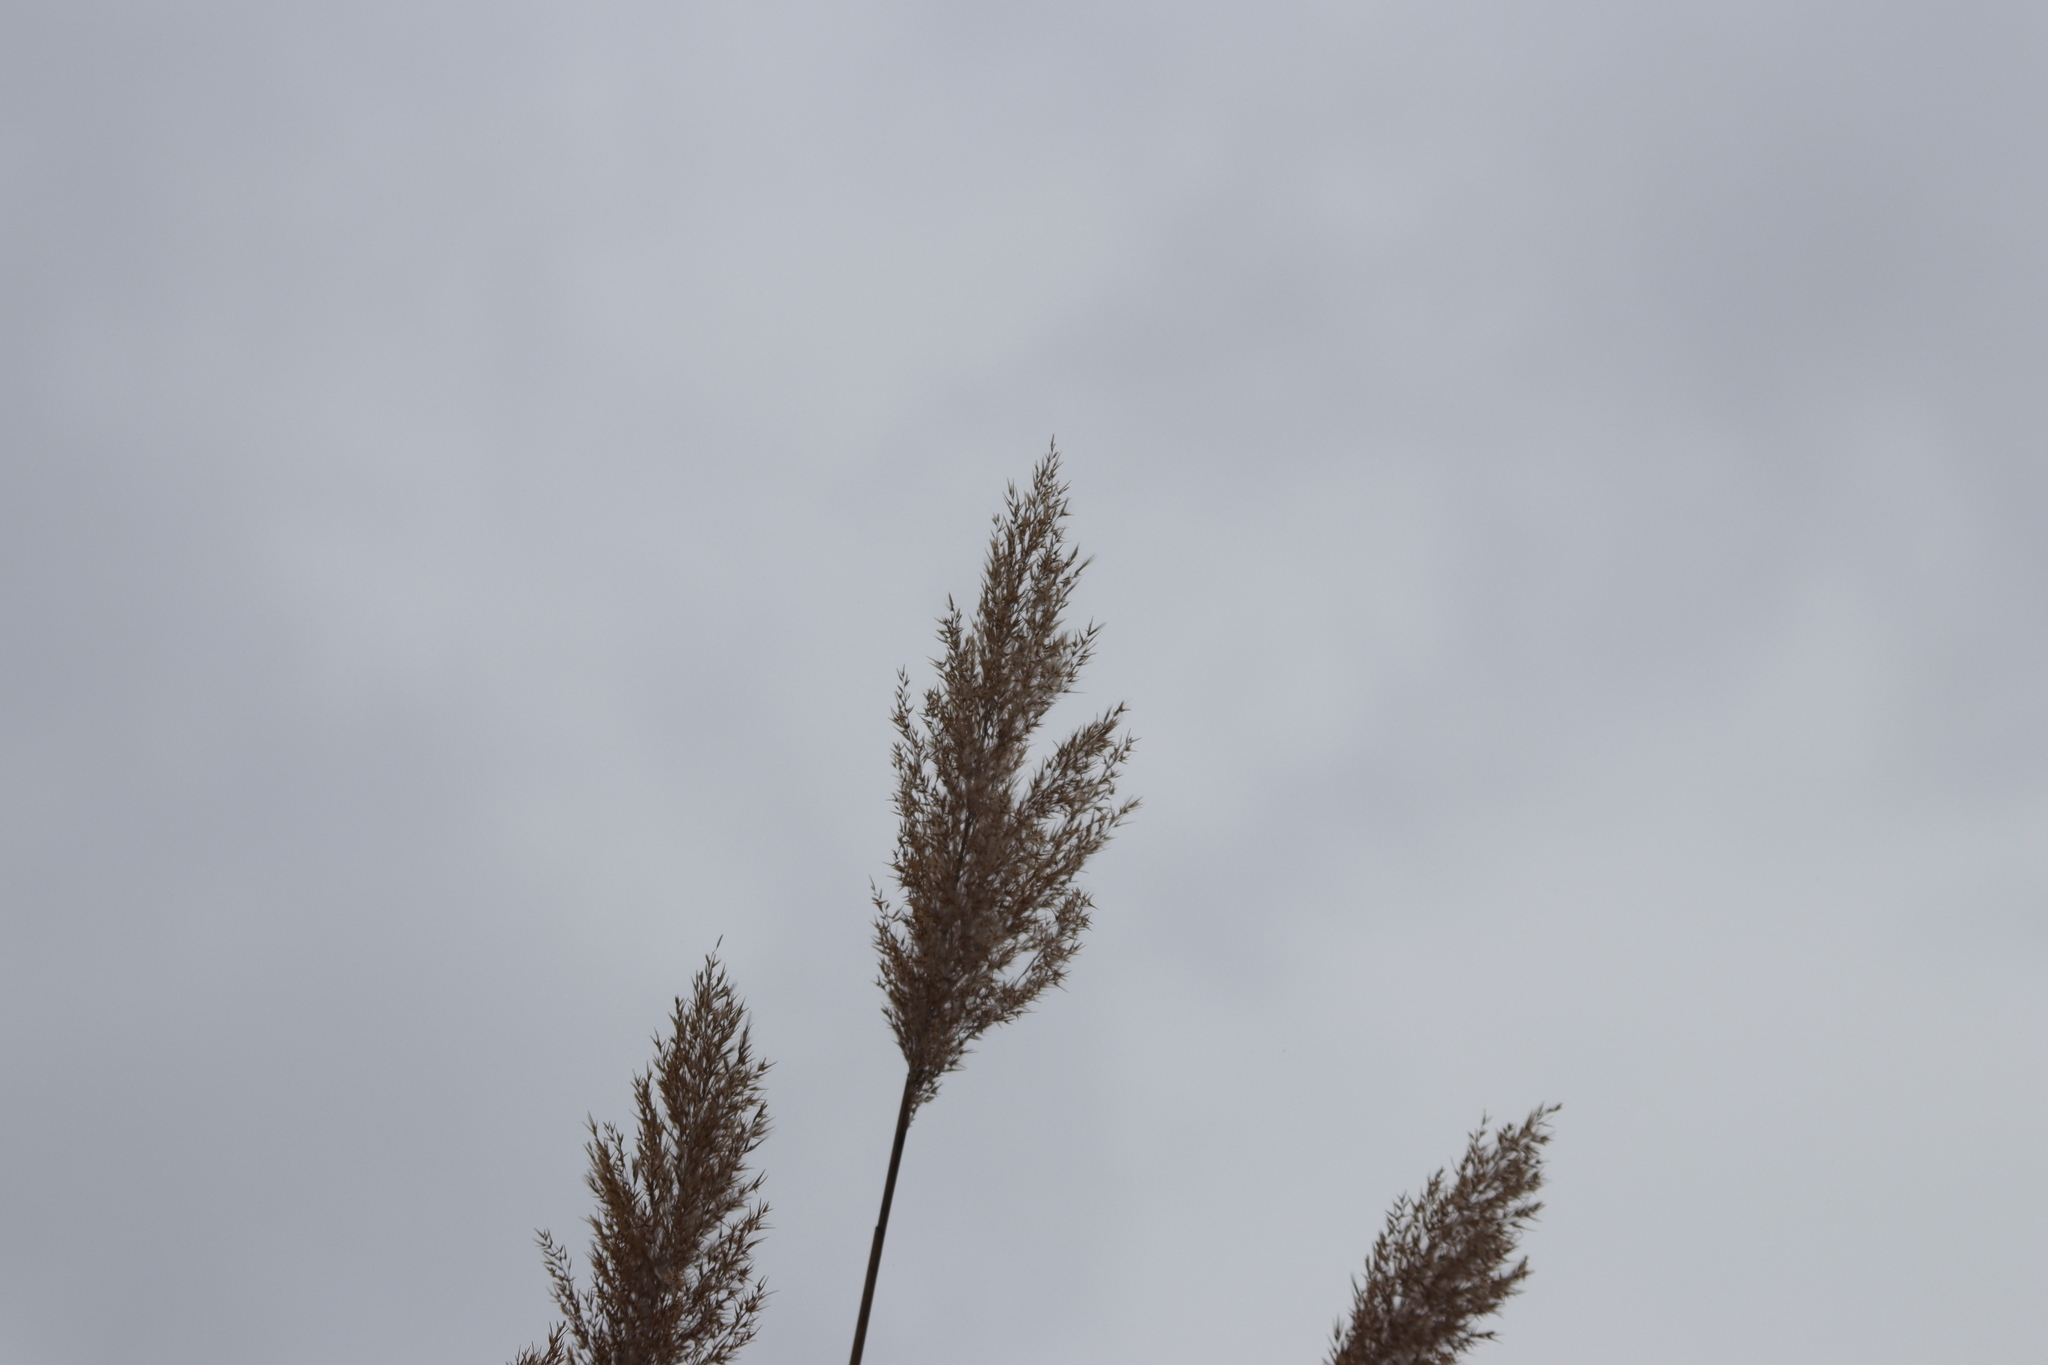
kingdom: Plantae
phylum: Tracheophyta
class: Liliopsida
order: Poales
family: Poaceae
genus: Phragmites
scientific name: Phragmites australis
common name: Common reed
